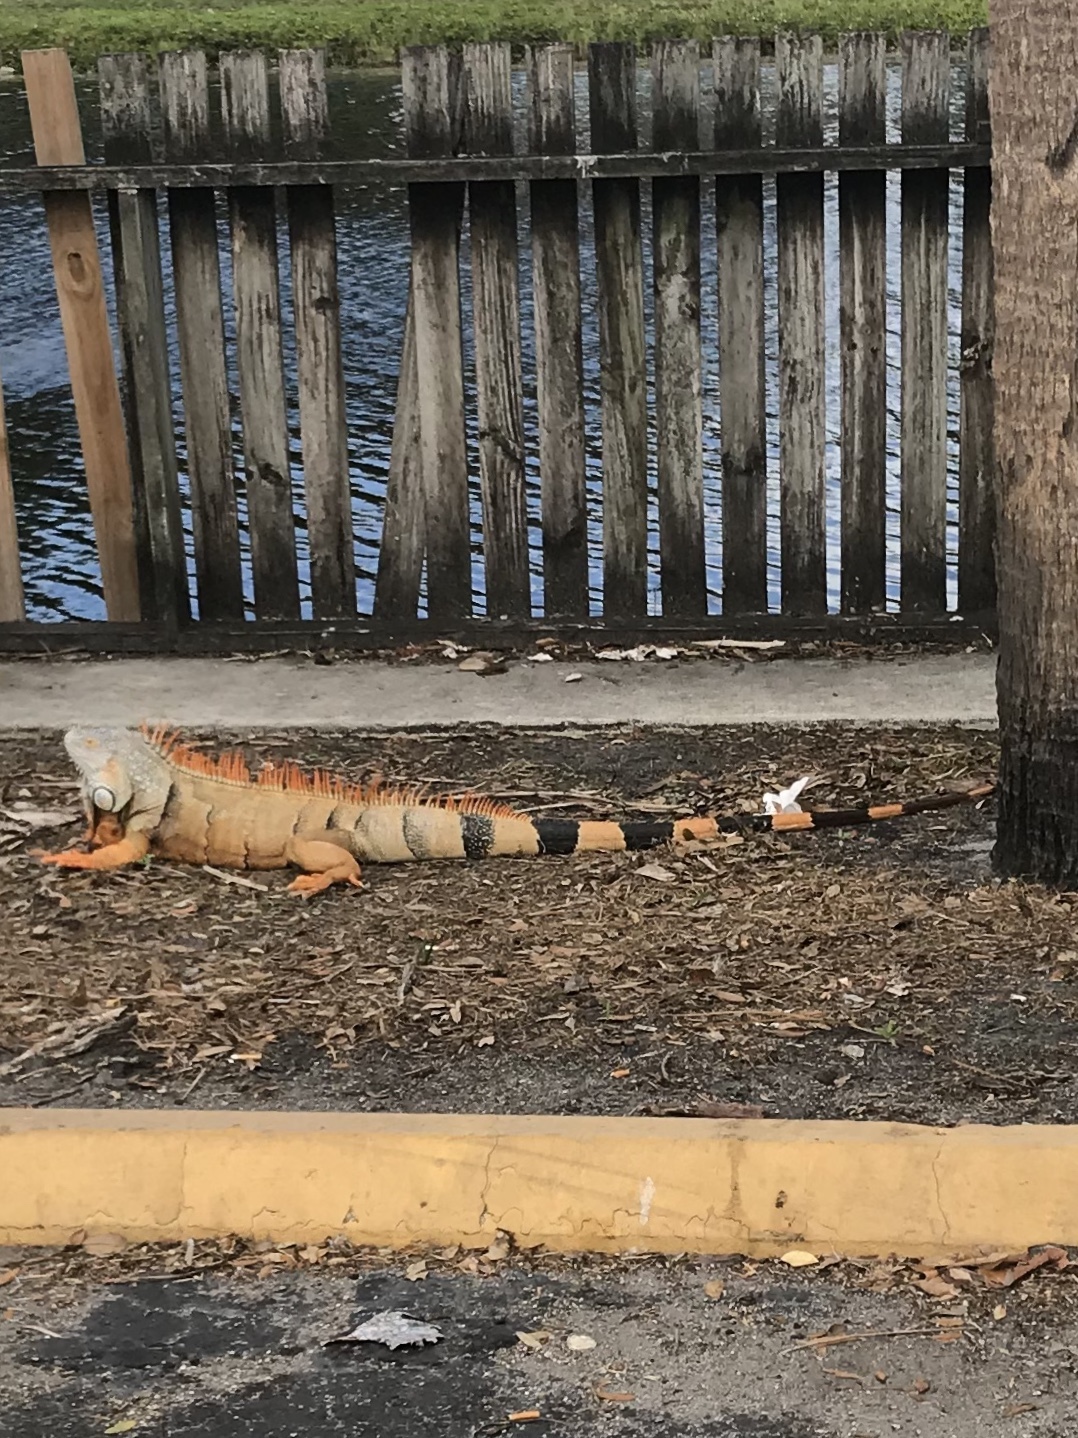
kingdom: Animalia
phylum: Chordata
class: Squamata
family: Iguanidae
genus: Iguana
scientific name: Iguana iguana
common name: Green iguana
